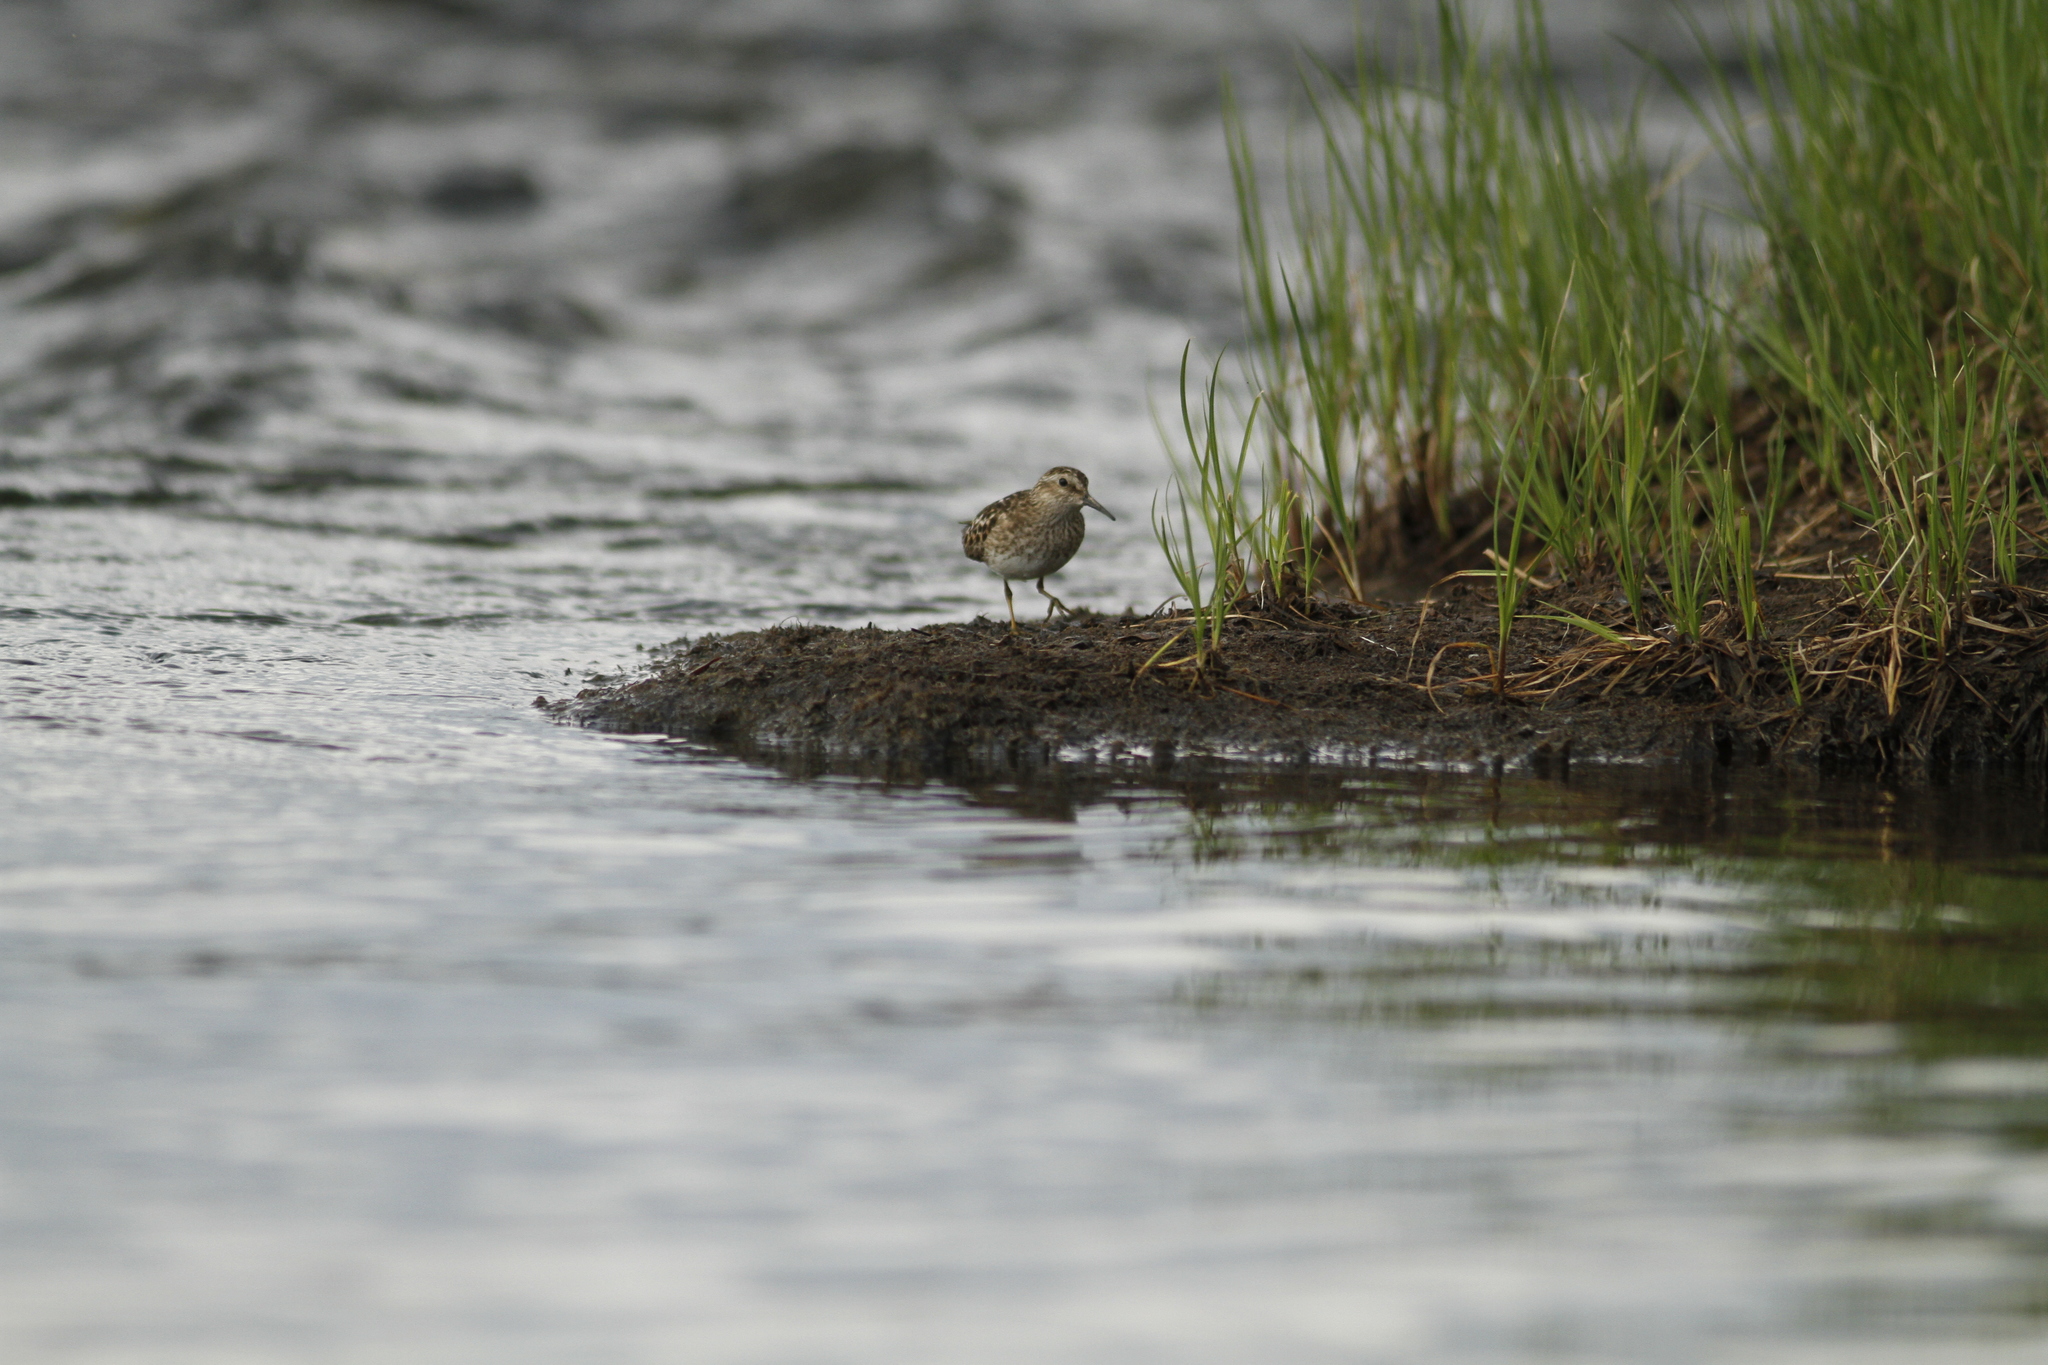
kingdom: Animalia
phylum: Chordata
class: Aves
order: Charadriiformes
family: Scolopacidae
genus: Calidris
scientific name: Calidris minutilla
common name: Least sandpiper
